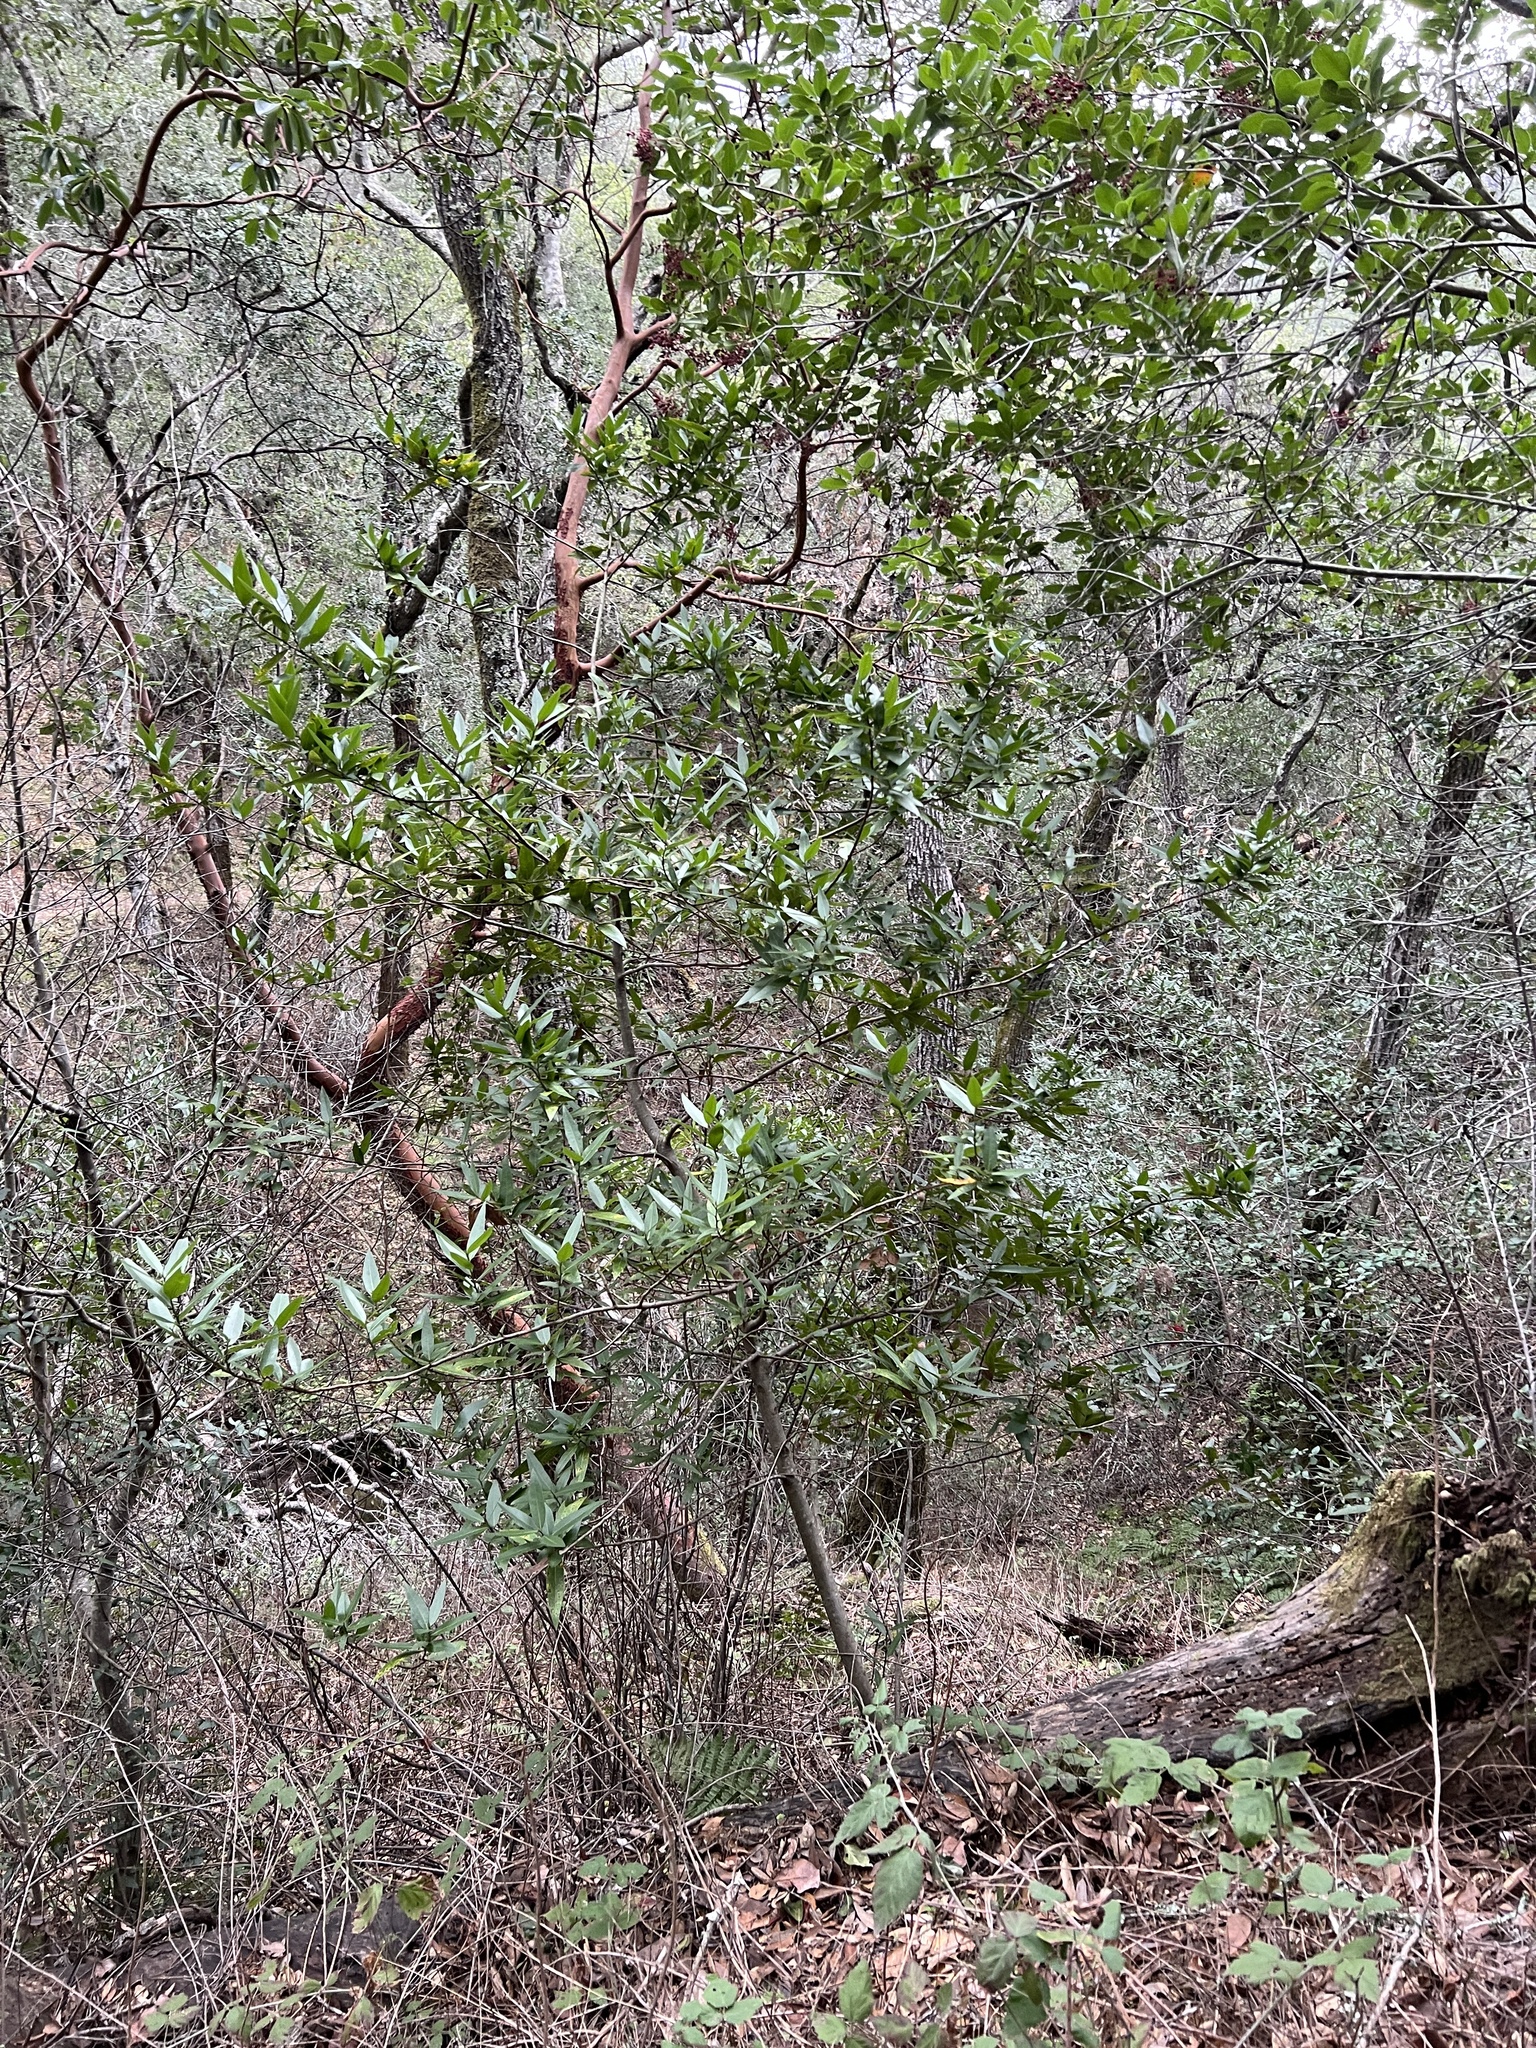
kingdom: Plantae
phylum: Tracheophyta
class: Magnoliopsida
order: Laurales
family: Lauraceae
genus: Umbellularia
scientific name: Umbellularia californica
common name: California bay
